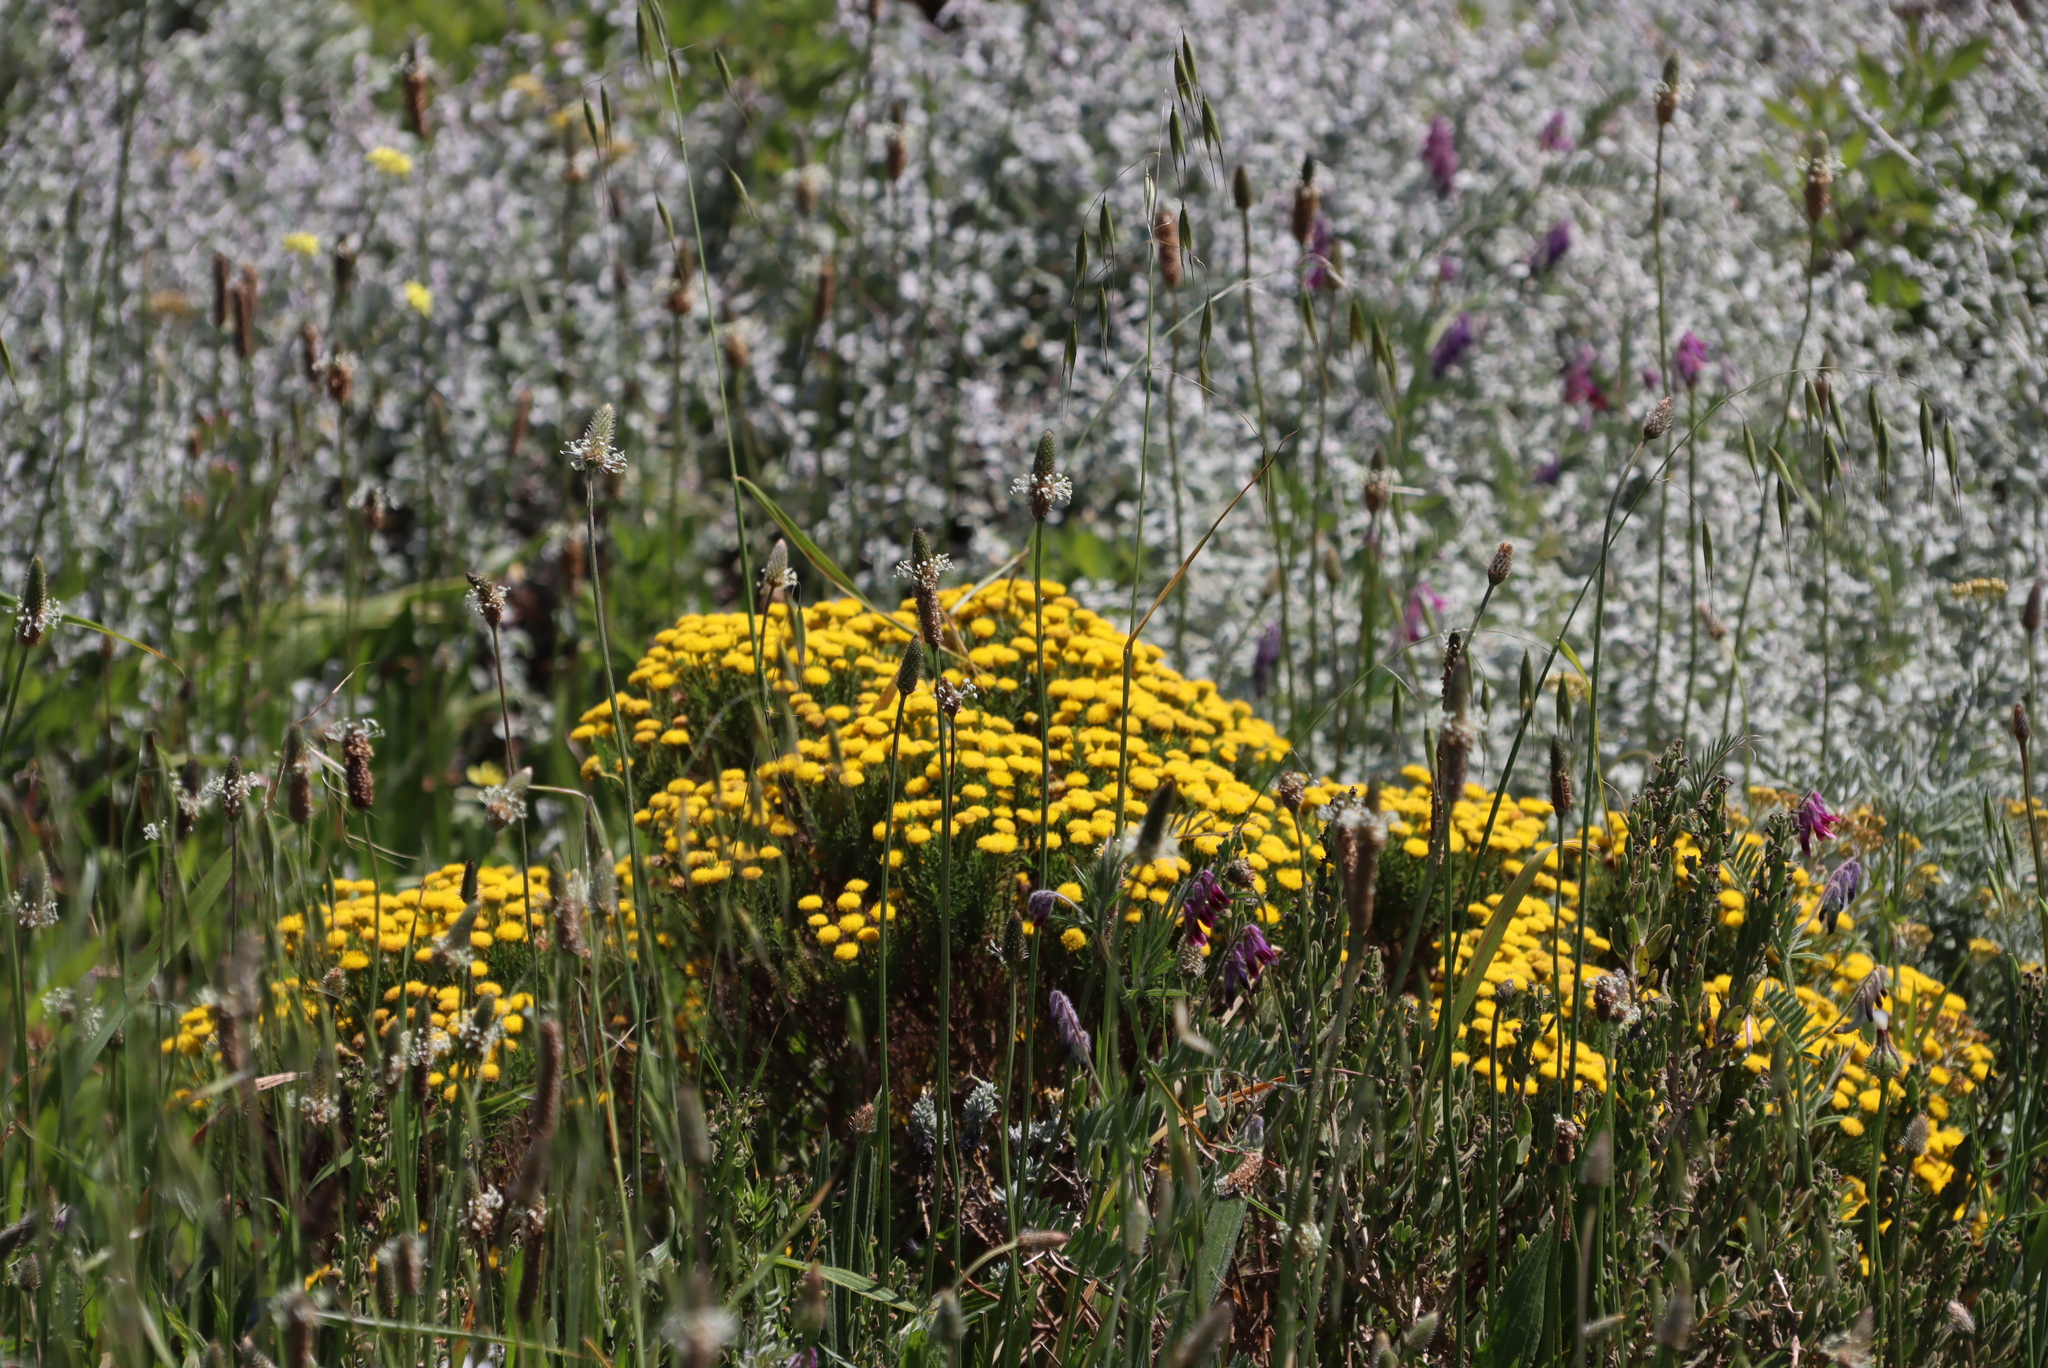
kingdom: Plantae
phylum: Tracheophyta
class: Magnoliopsida
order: Asterales
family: Asteraceae
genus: Chrysocoma
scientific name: Chrysocoma cernua
